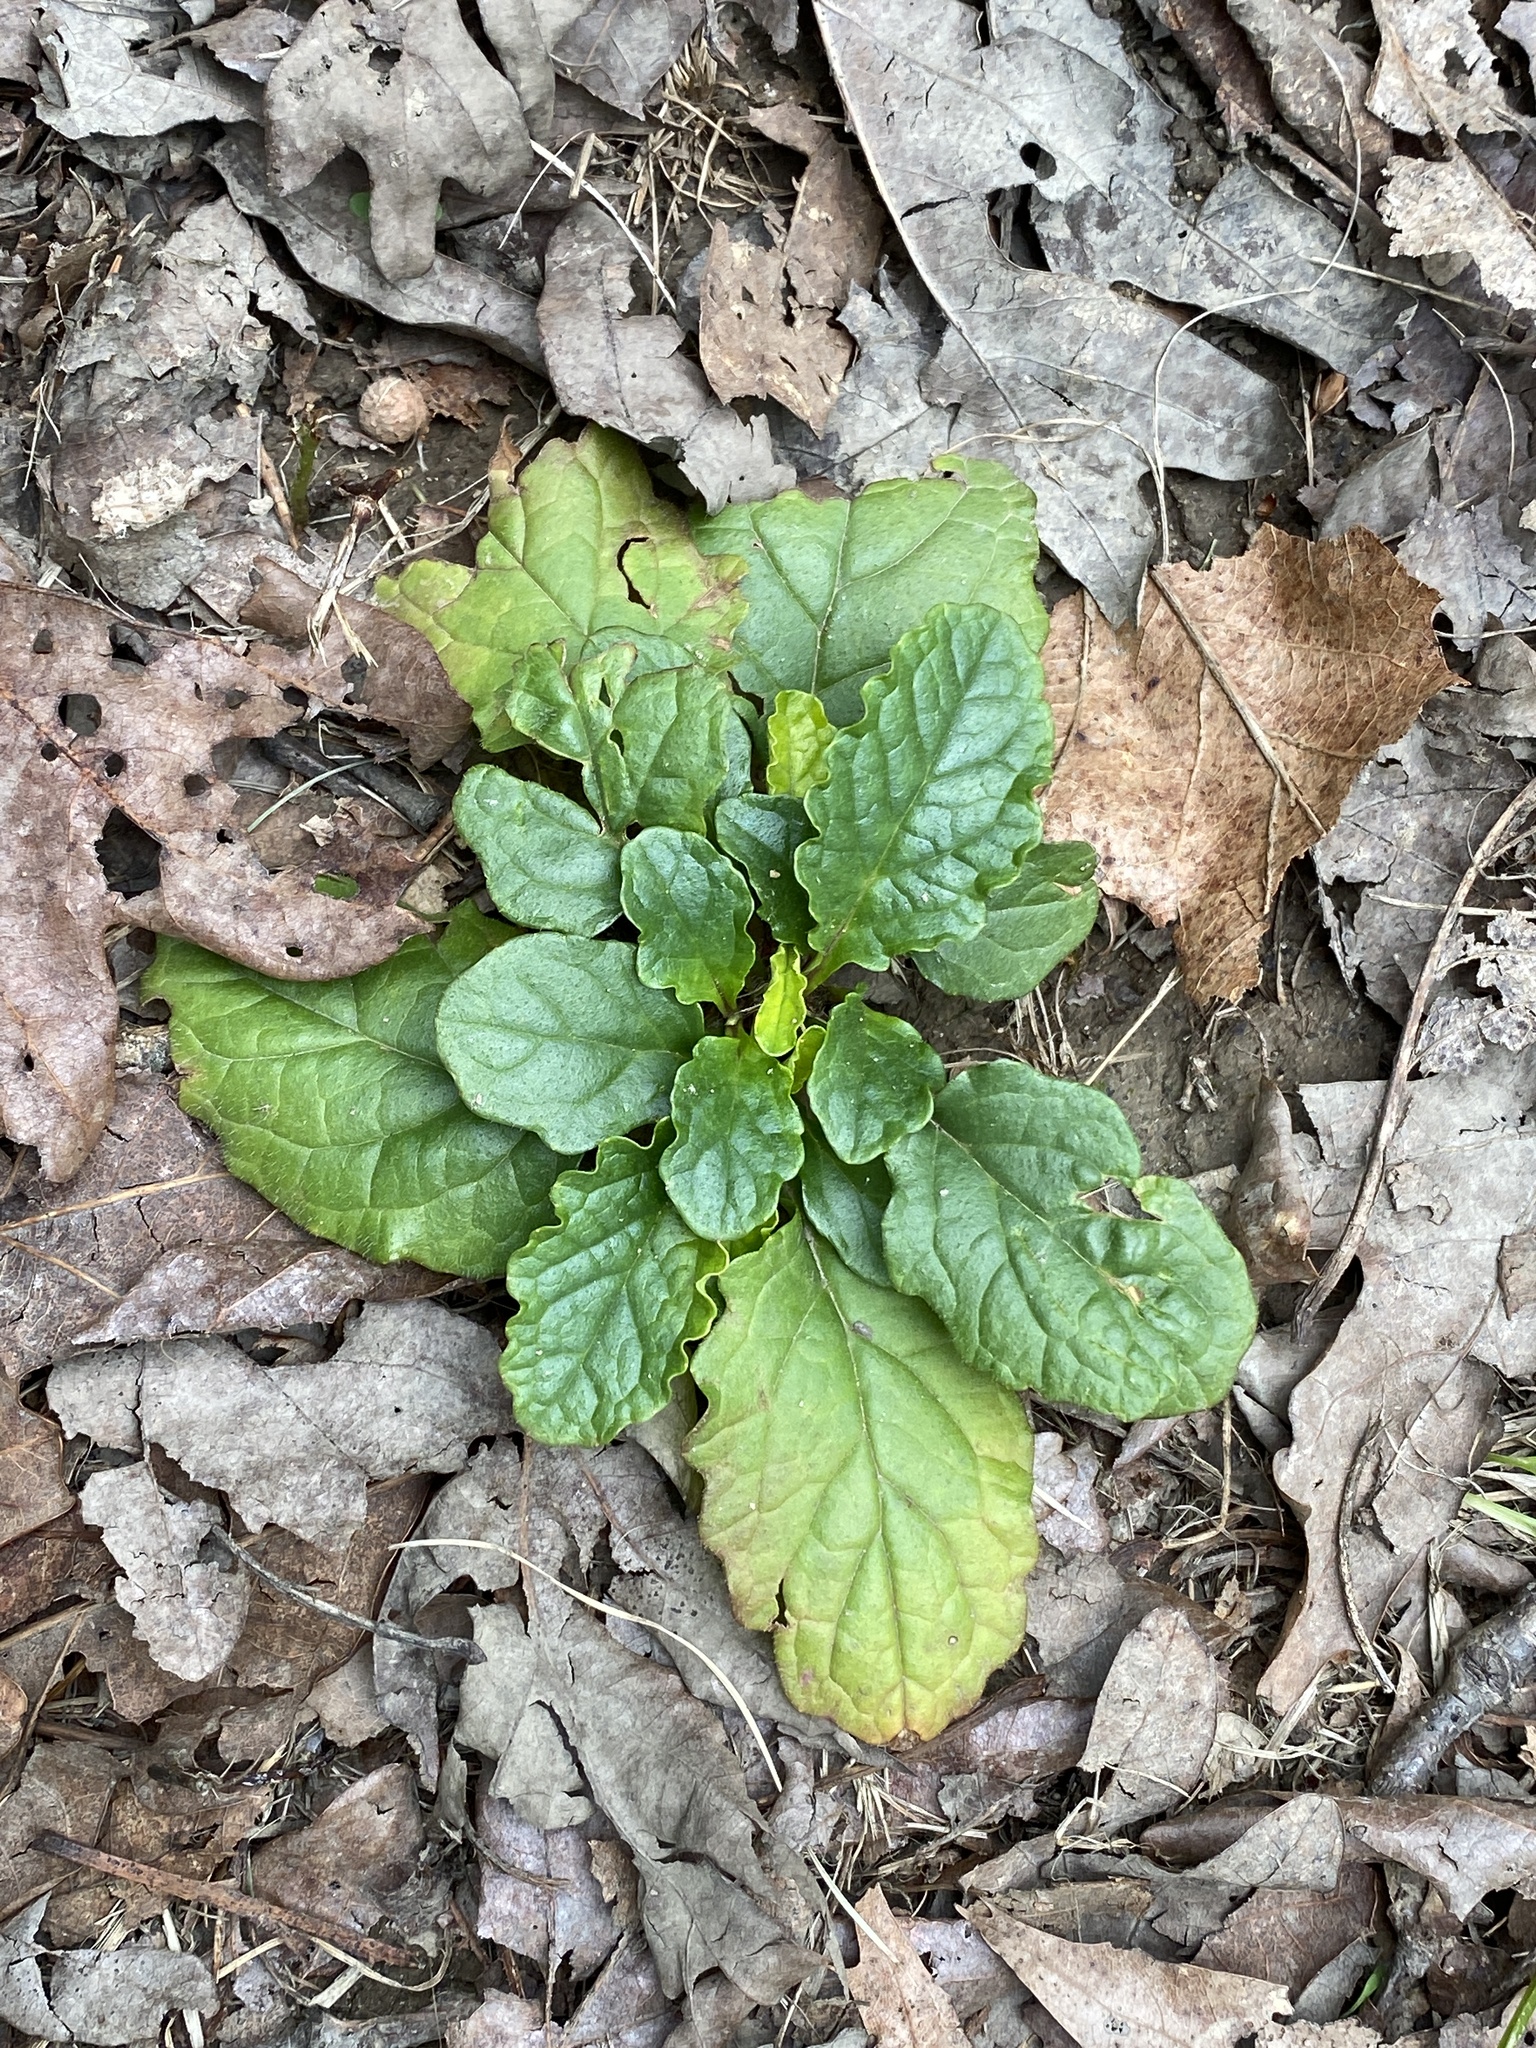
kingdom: Plantae
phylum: Tracheophyta
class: Magnoliopsida
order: Lamiales
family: Lamiaceae
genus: Ajuga
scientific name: Ajuga reptans
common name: Bugle
